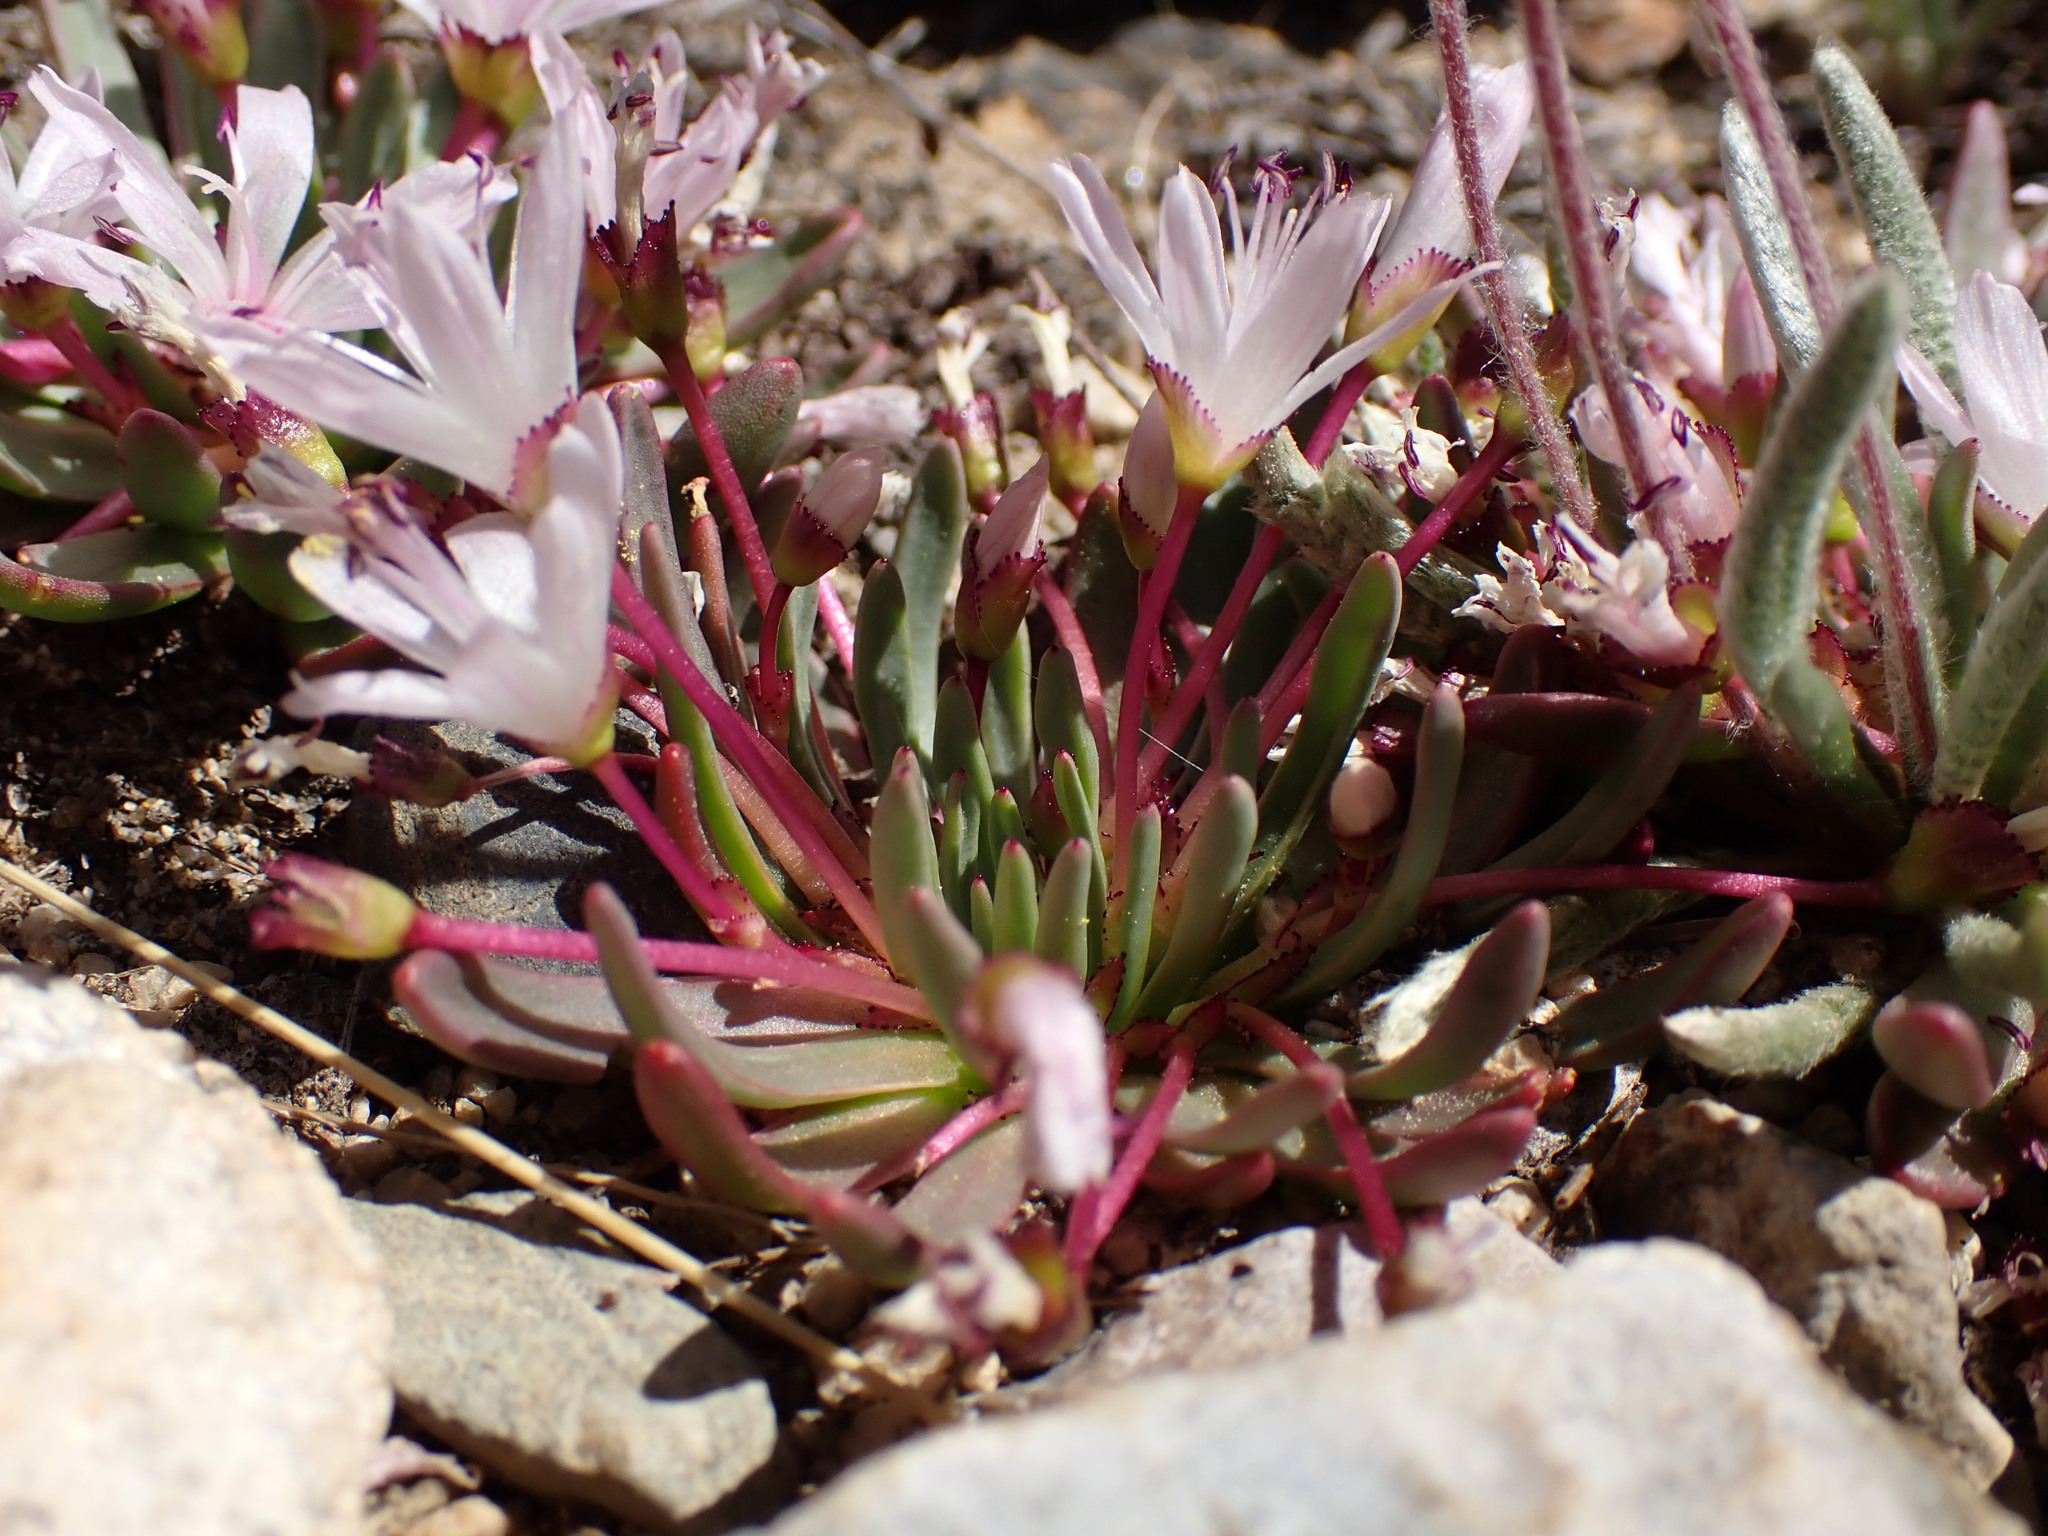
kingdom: Plantae
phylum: Tracheophyta
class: Magnoliopsida
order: Caryophyllales
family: Montiaceae
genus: Lewisia
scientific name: Lewisia glandulosa
